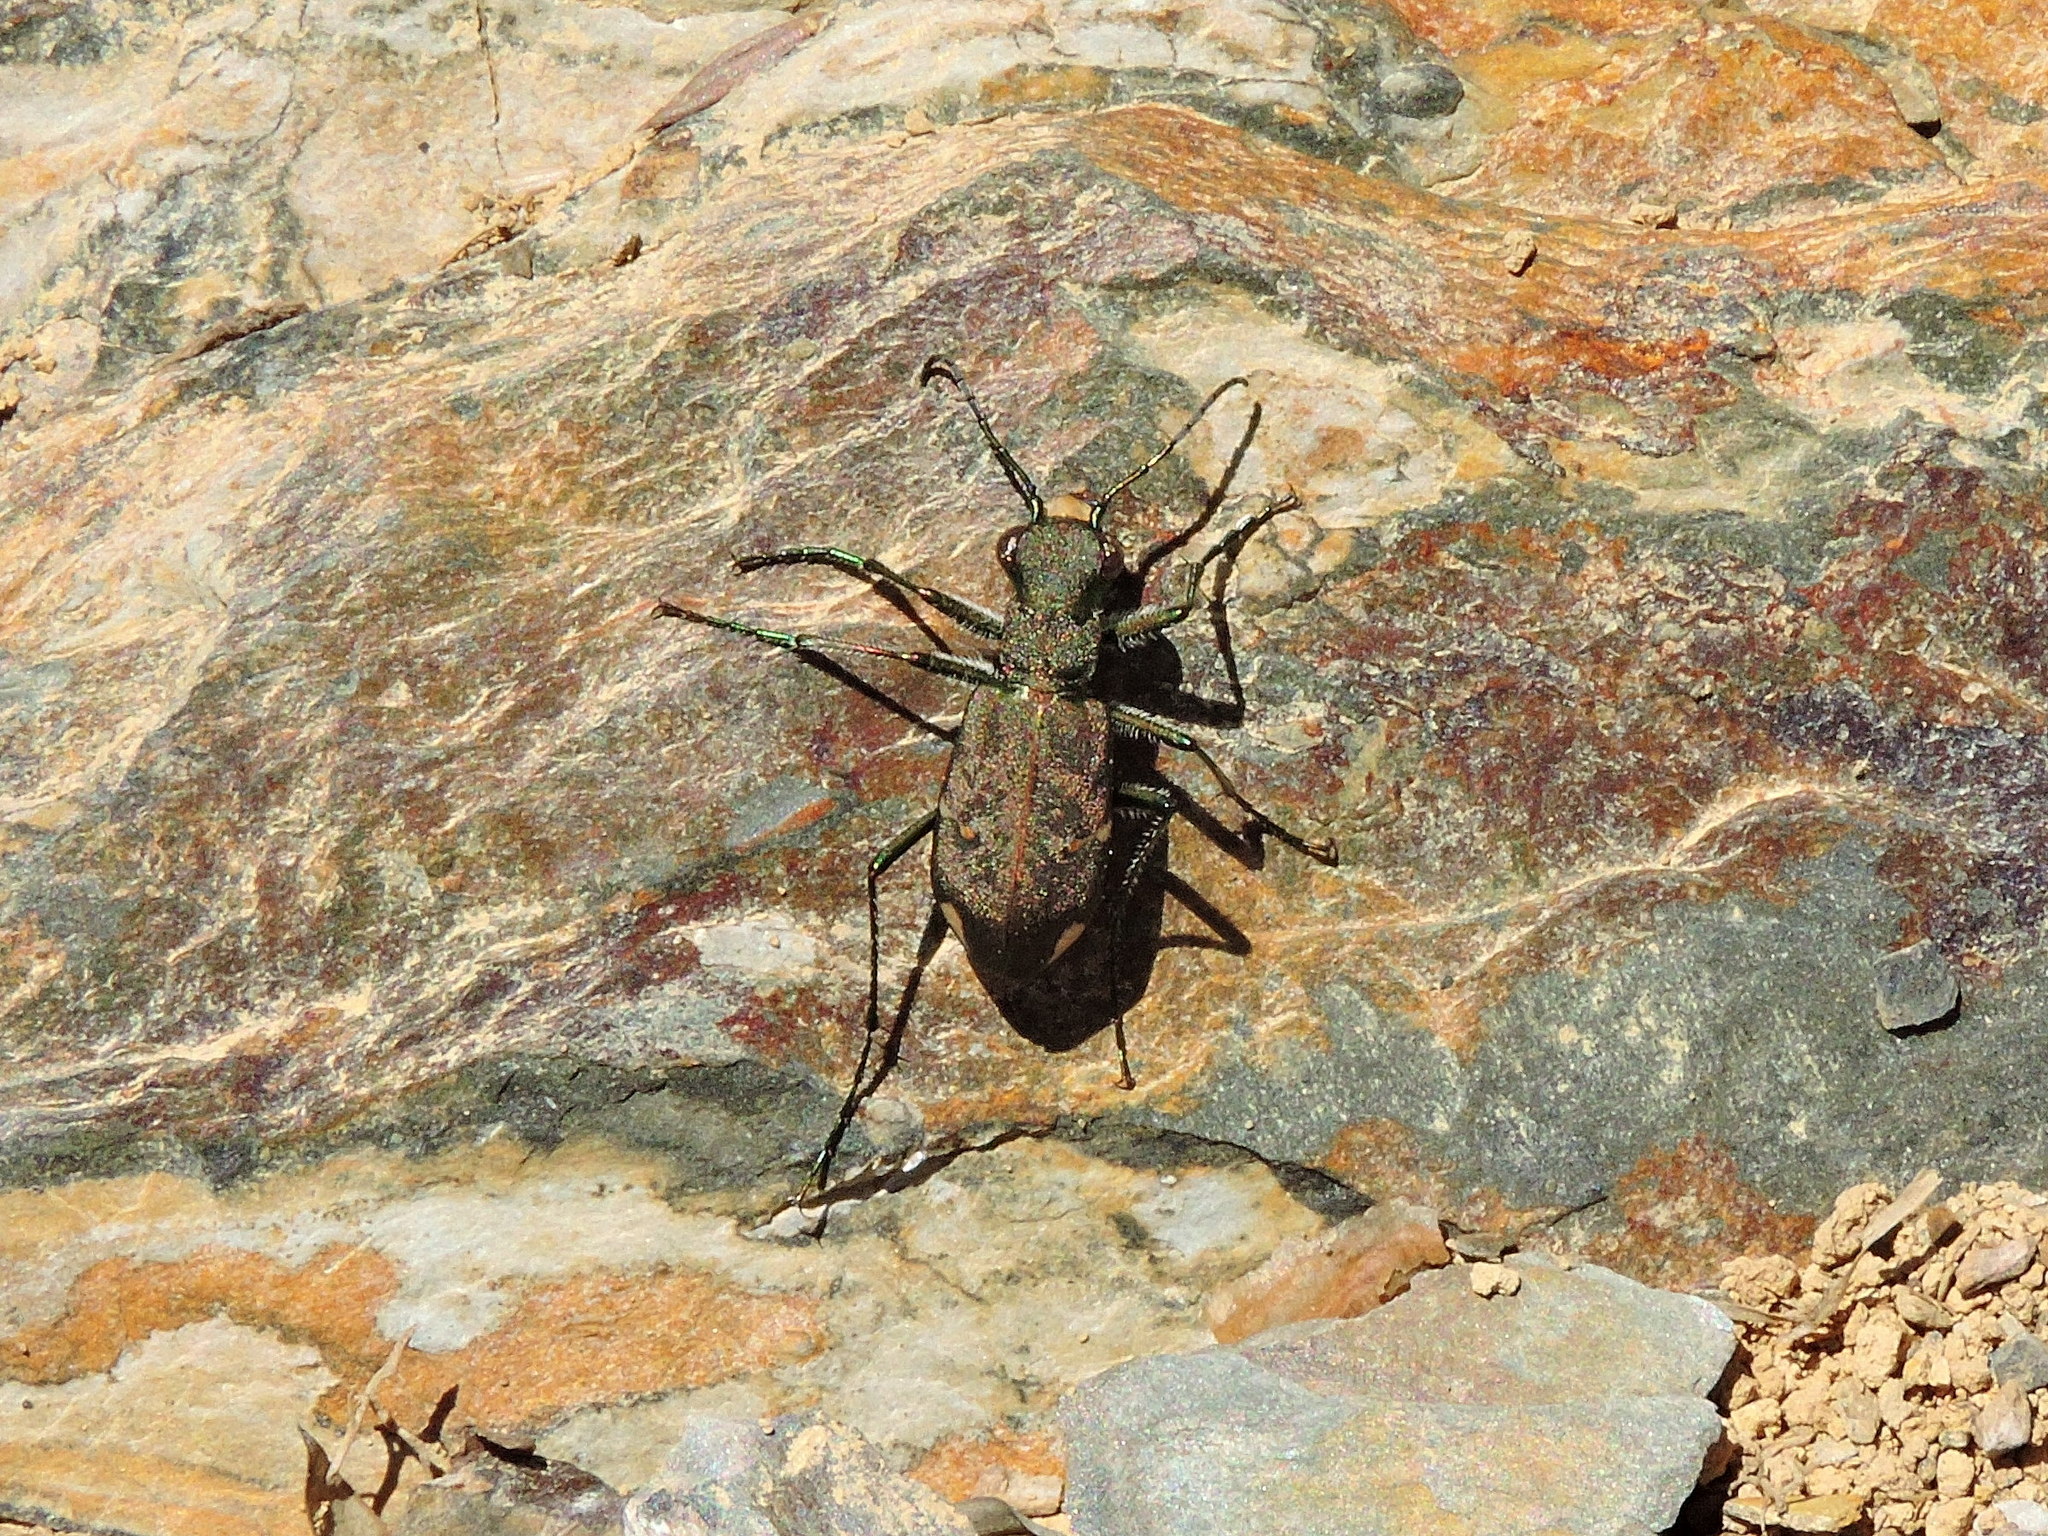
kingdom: Animalia
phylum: Arthropoda
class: Insecta
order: Coleoptera
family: Carabidae
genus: Cylindera
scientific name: Cylindera shirakii
